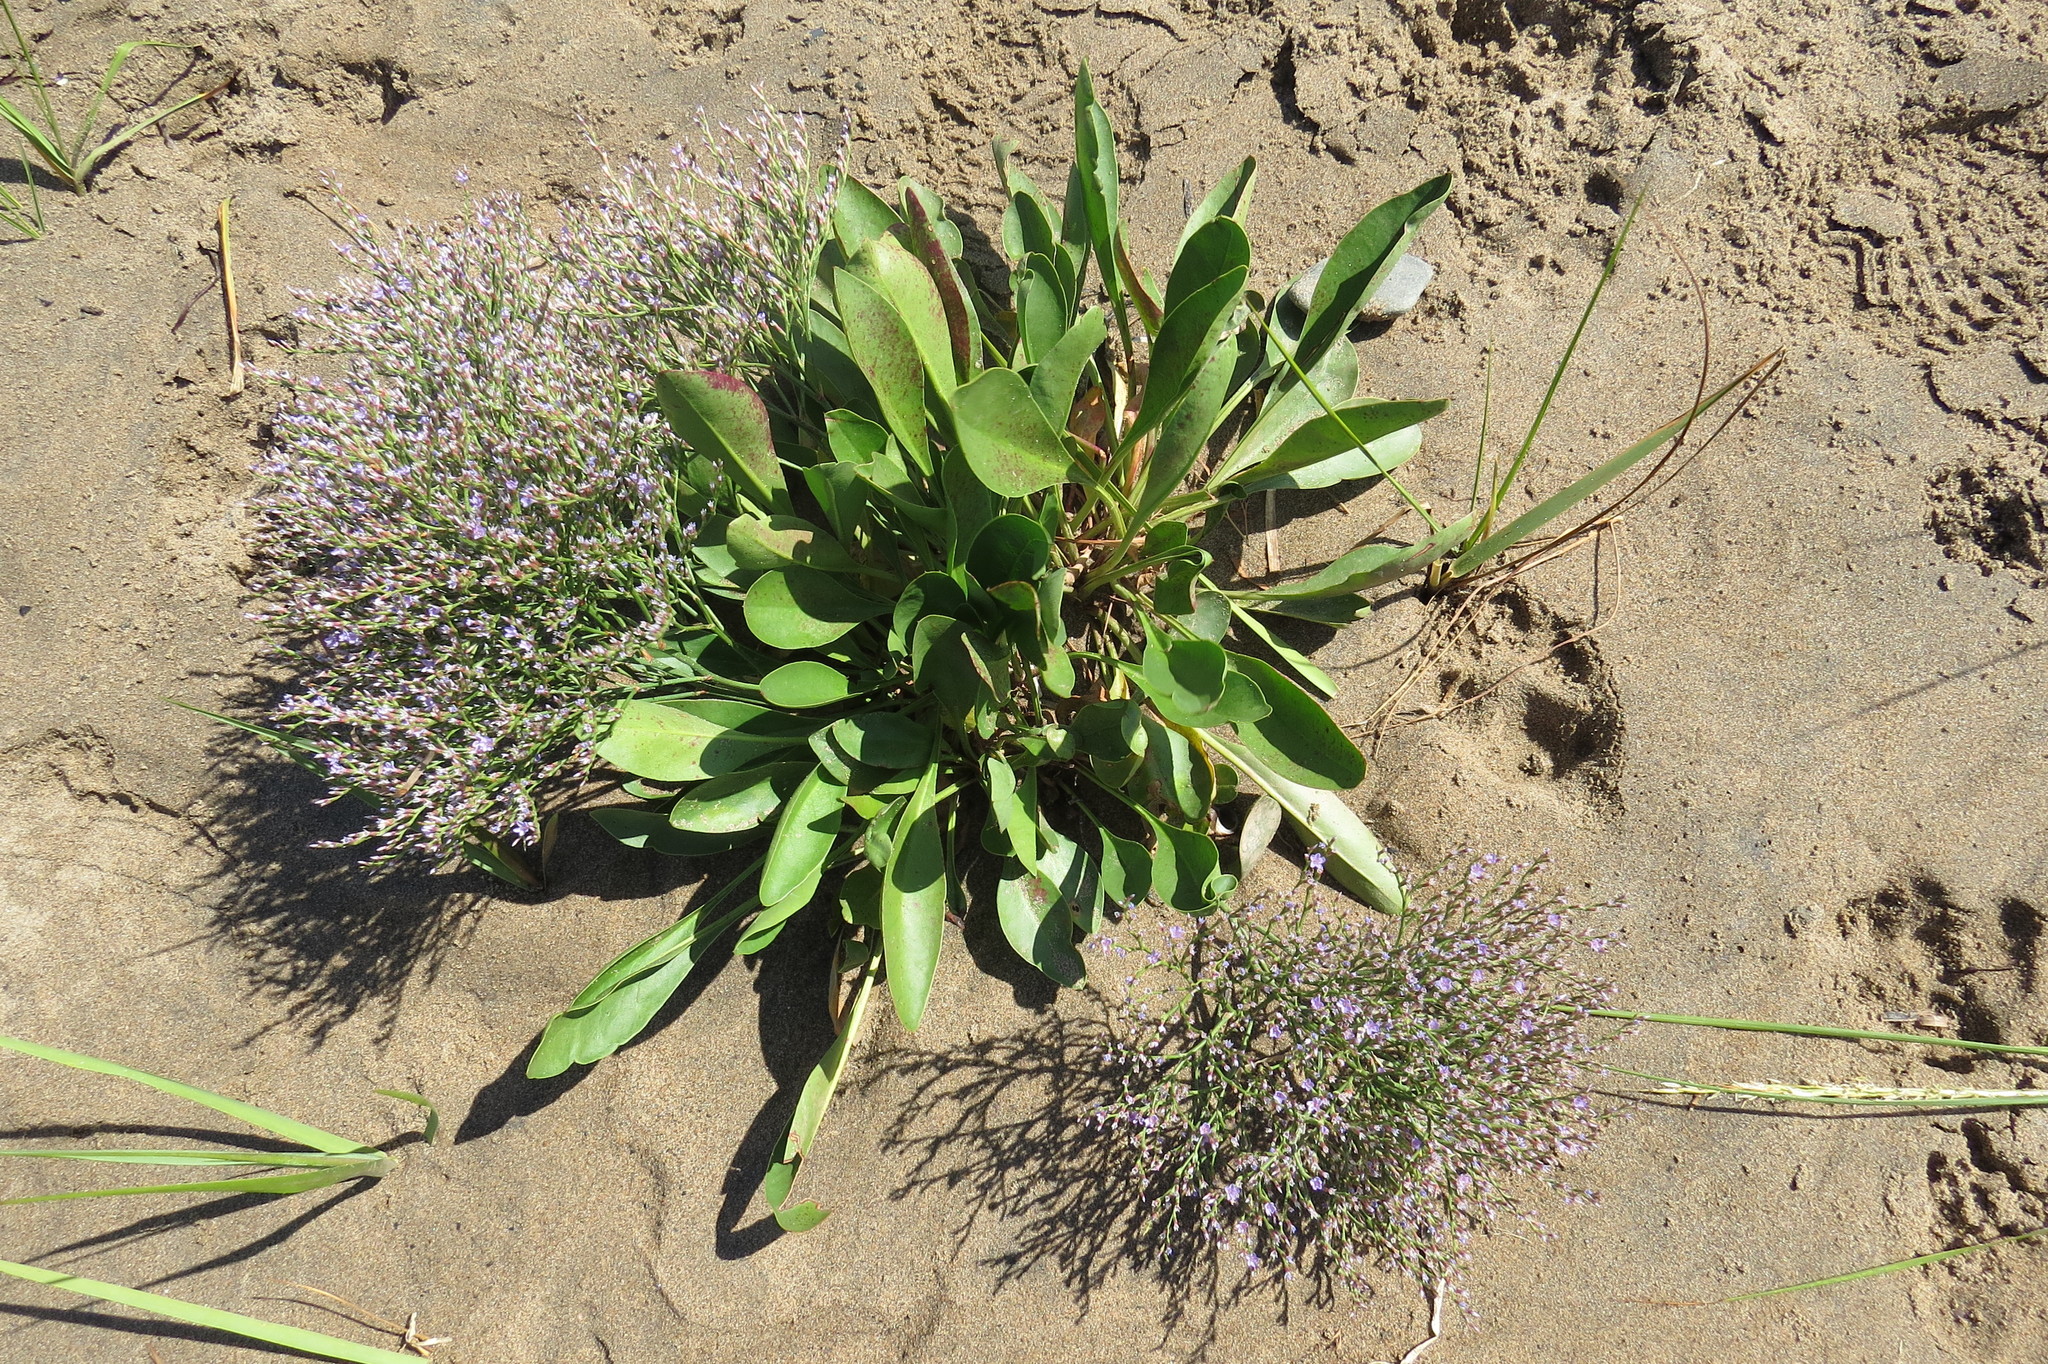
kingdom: Plantae
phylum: Tracheophyta
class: Magnoliopsida
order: Caryophyllales
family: Plumbaginaceae
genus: Limonium
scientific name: Limonium carolinianum
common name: Carolina sea lavender
